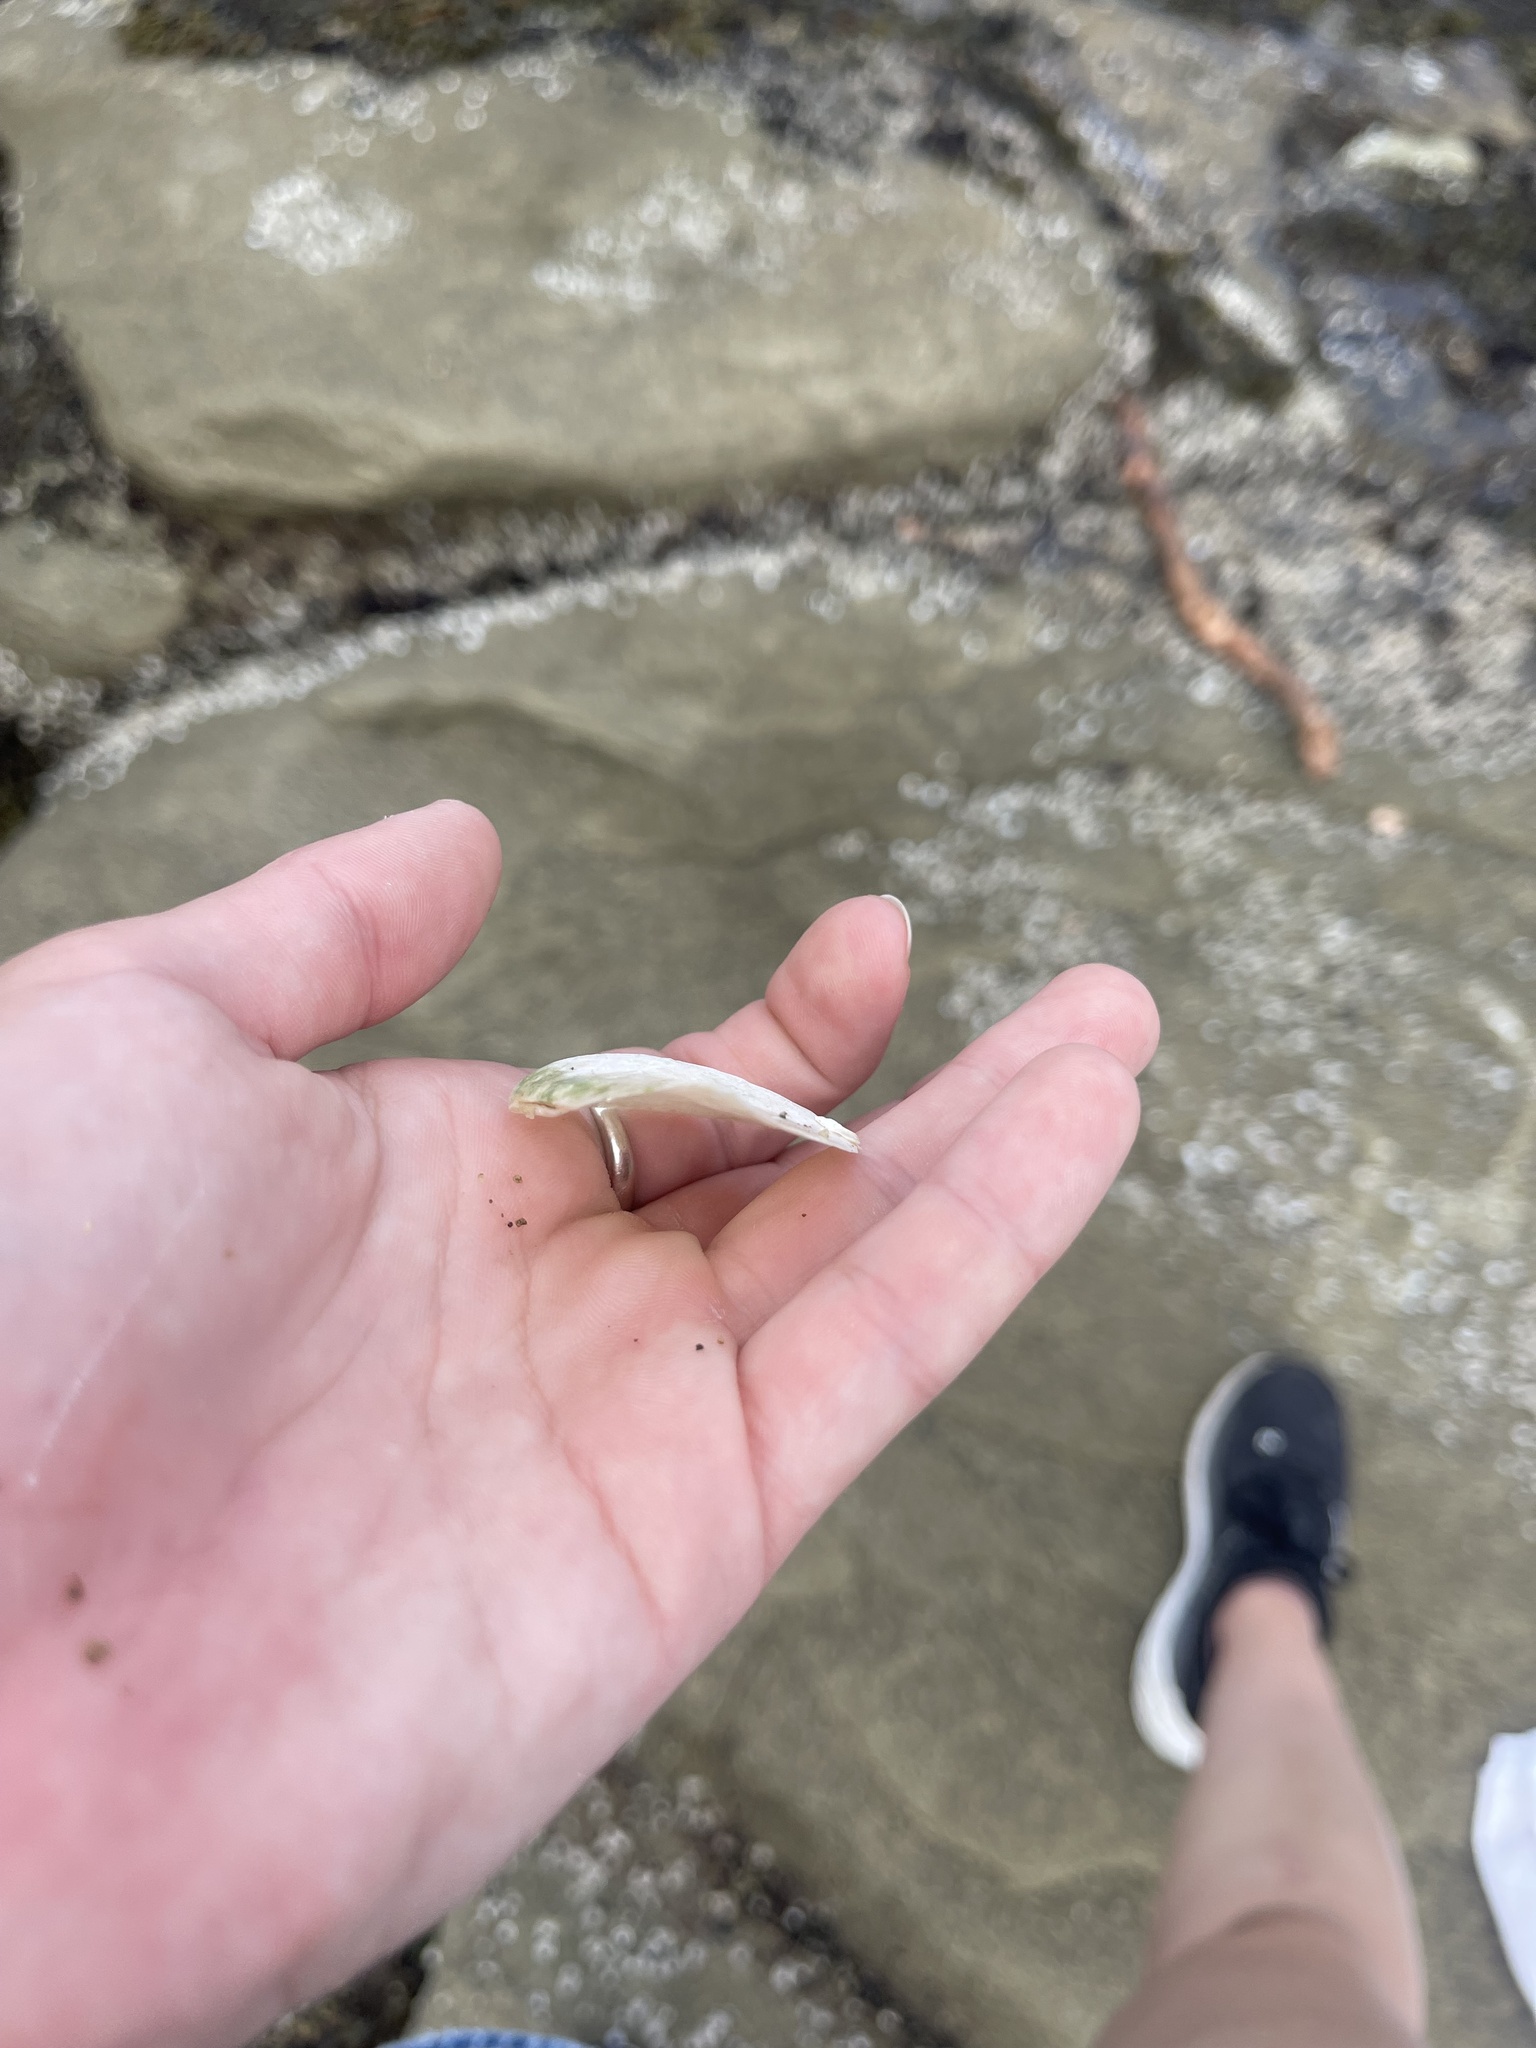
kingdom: Animalia
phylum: Mollusca
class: Bivalvia
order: Cardiida
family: Tellinidae
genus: Macoma
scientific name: Macoma nasuta
